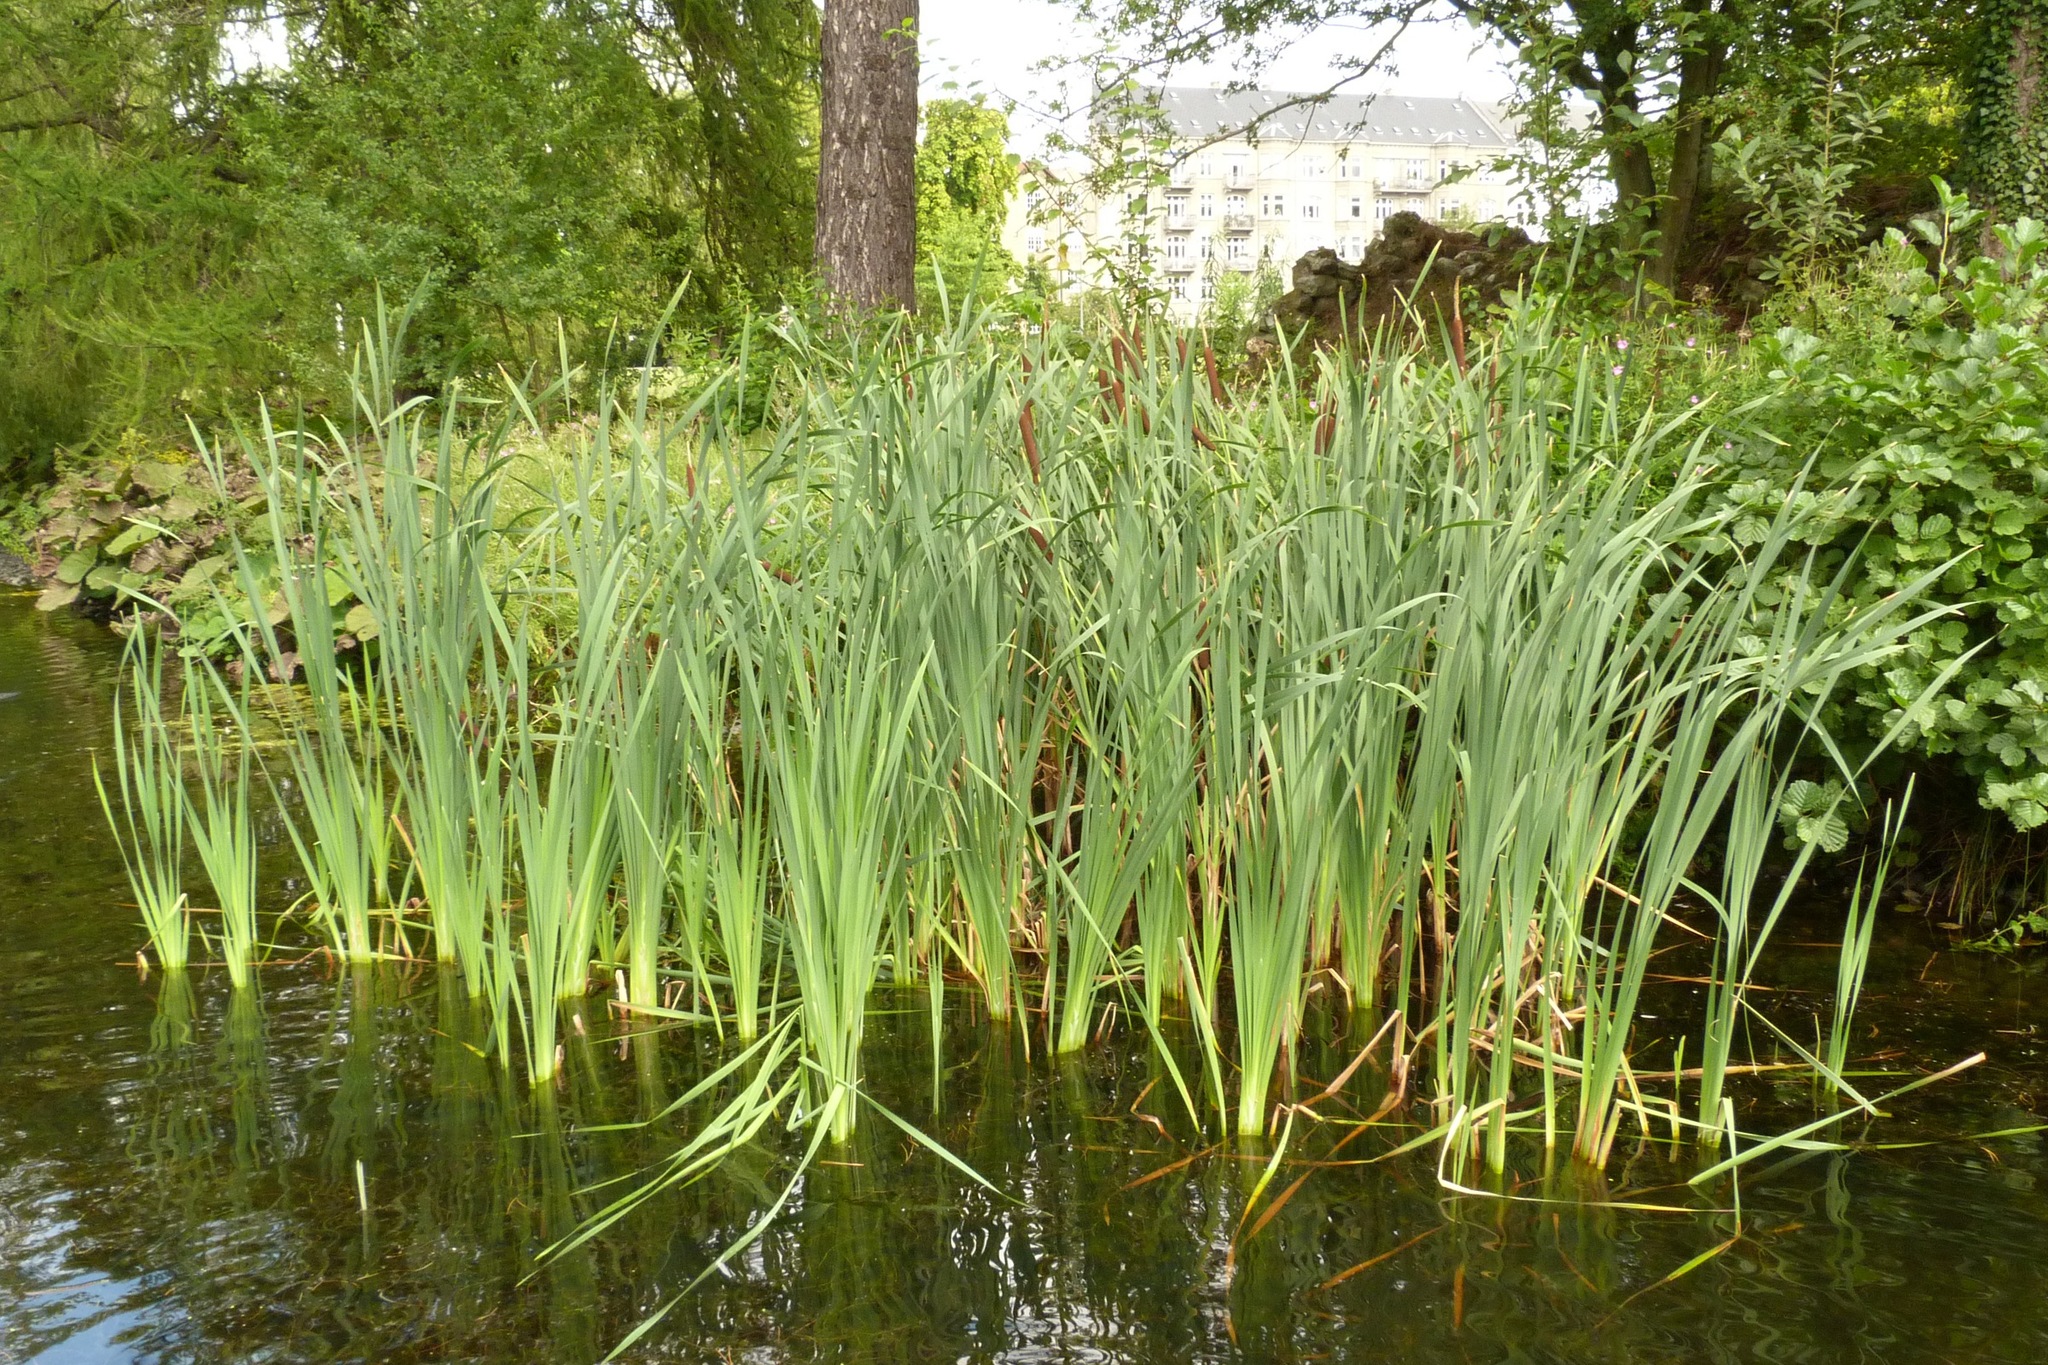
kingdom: Plantae
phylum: Tracheophyta
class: Liliopsida
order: Poales
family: Typhaceae
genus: Typha
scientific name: Typha latifolia
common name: Broadleaf cattail
